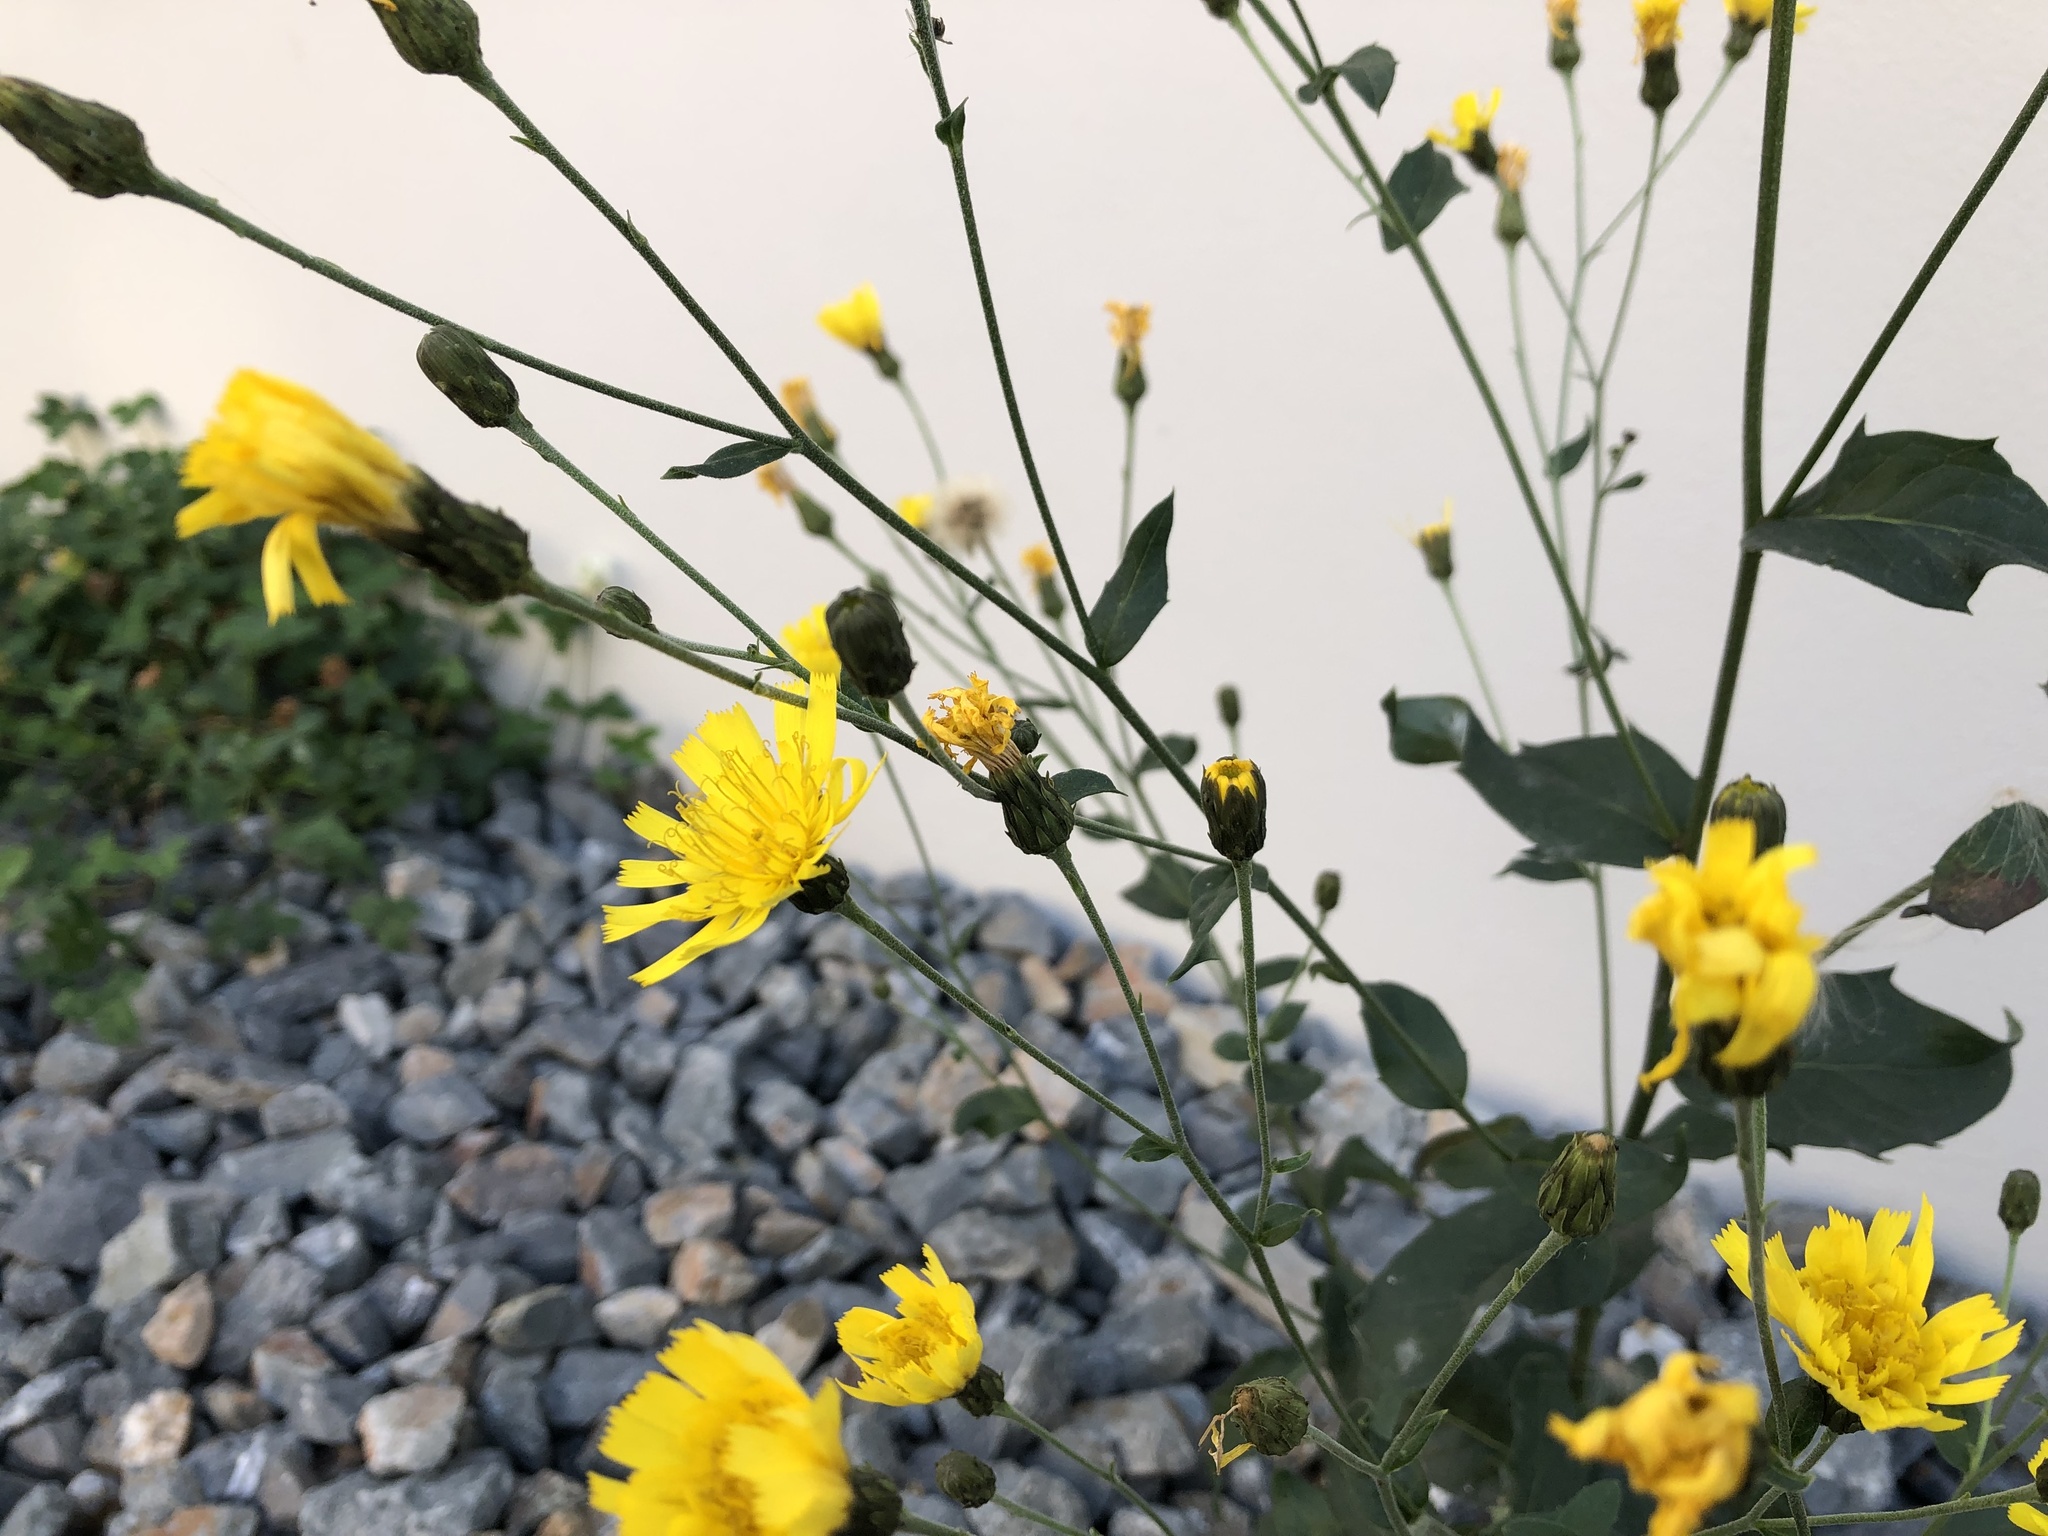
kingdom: Plantae
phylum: Tracheophyta
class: Magnoliopsida
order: Asterales
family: Asteraceae
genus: Hieracium
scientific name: Hieracium sabaudum
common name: New england hawkweed
